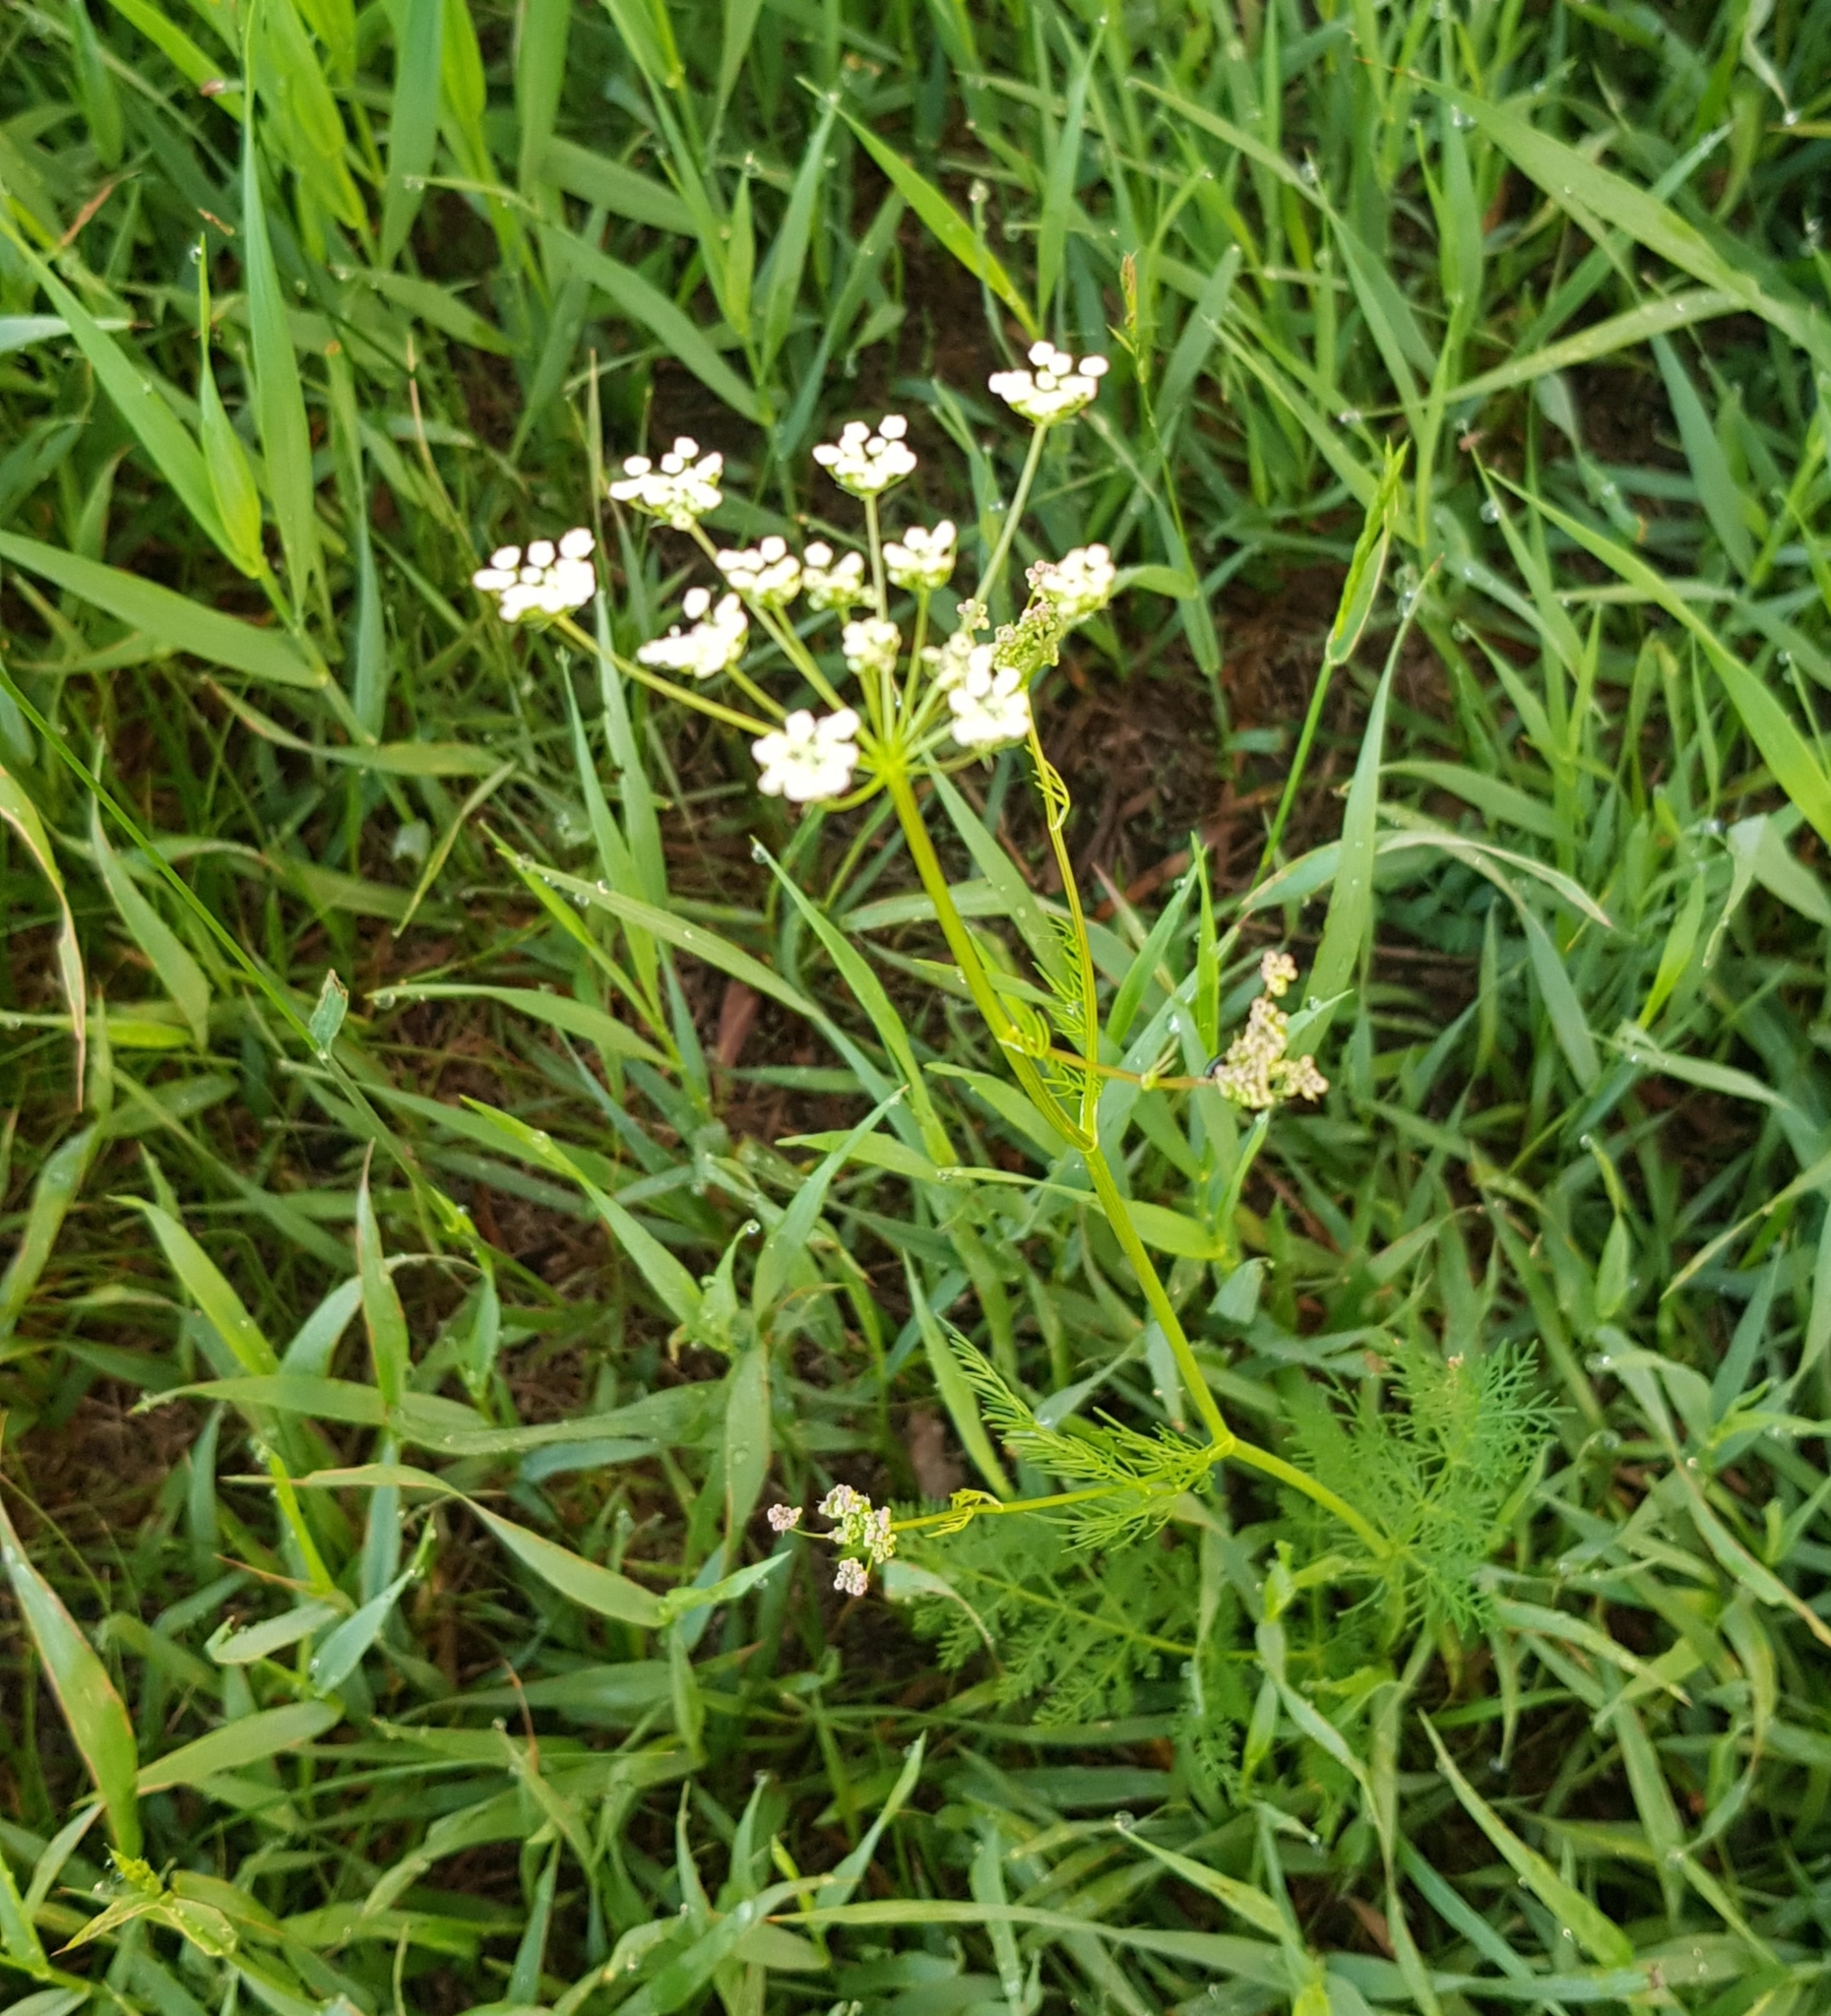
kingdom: Plantae
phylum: Tracheophyta
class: Magnoliopsida
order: Apiales
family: Apiaceae
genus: Carum
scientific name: Carum carvi
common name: Caraway
